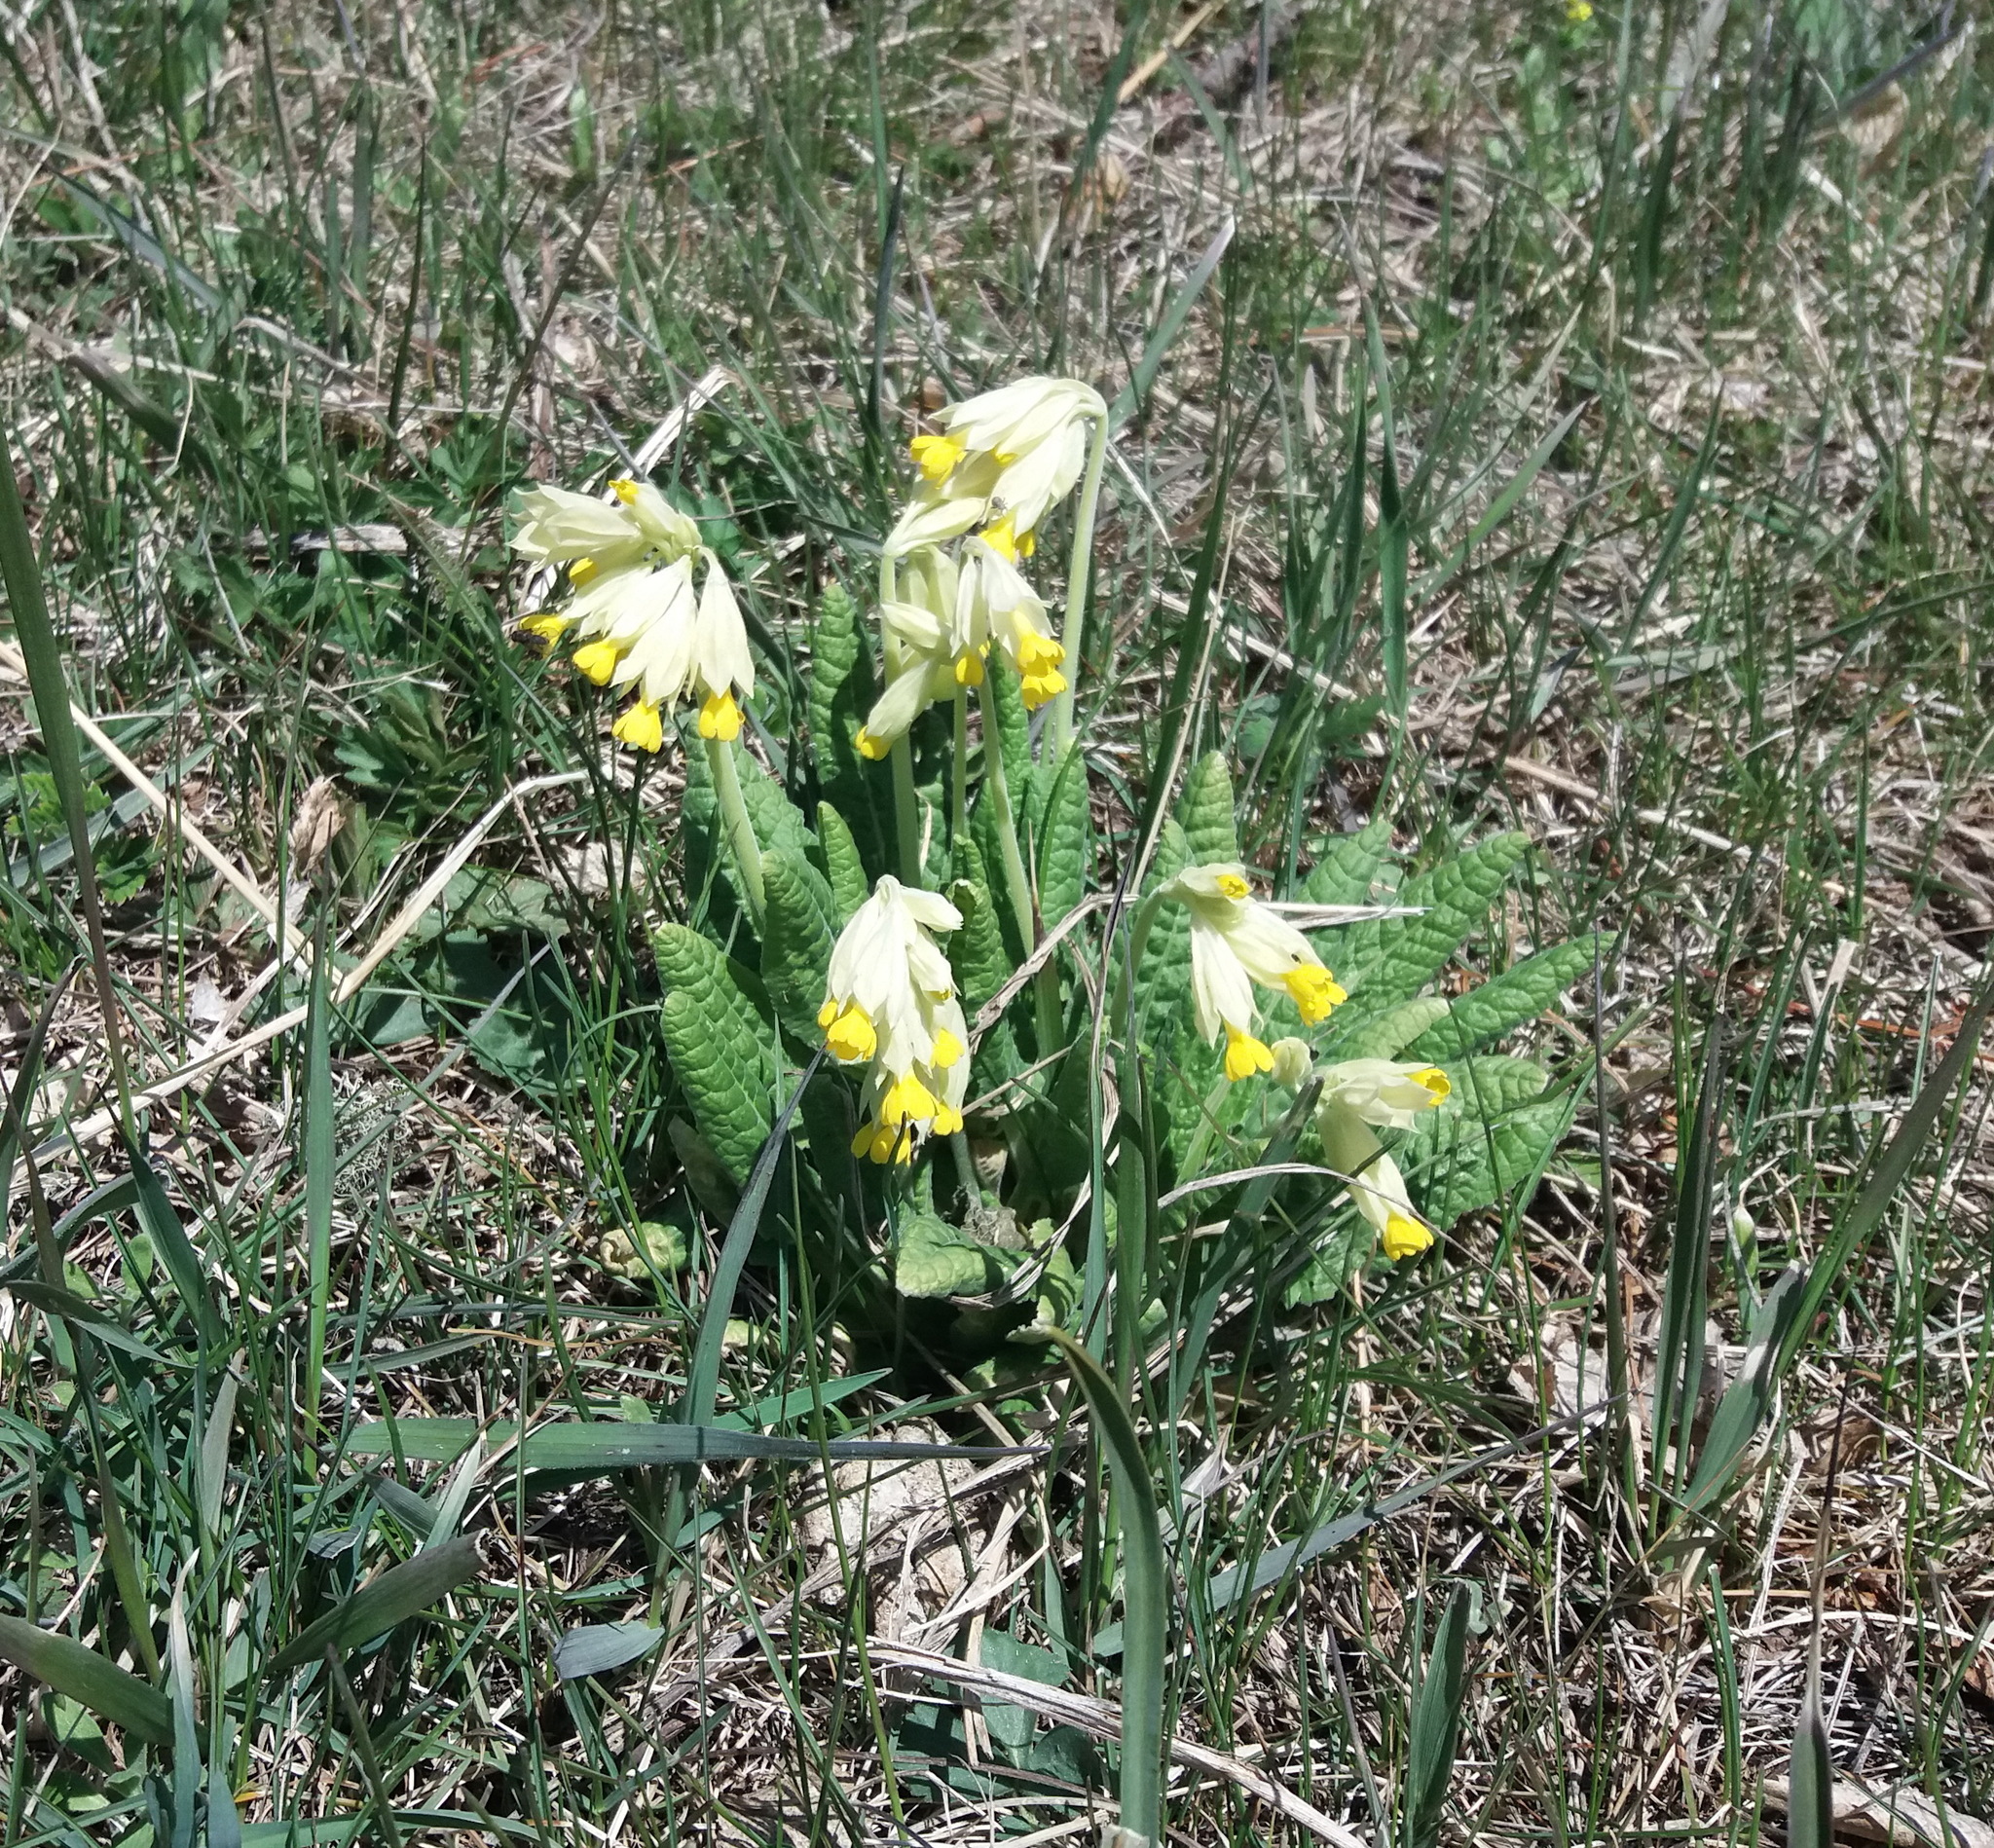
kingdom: Plantae
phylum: Tracheophyta
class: Magnoliopsida
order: Ericales
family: Primulaceae
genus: Primula
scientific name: Primula veris
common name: Cowslip
